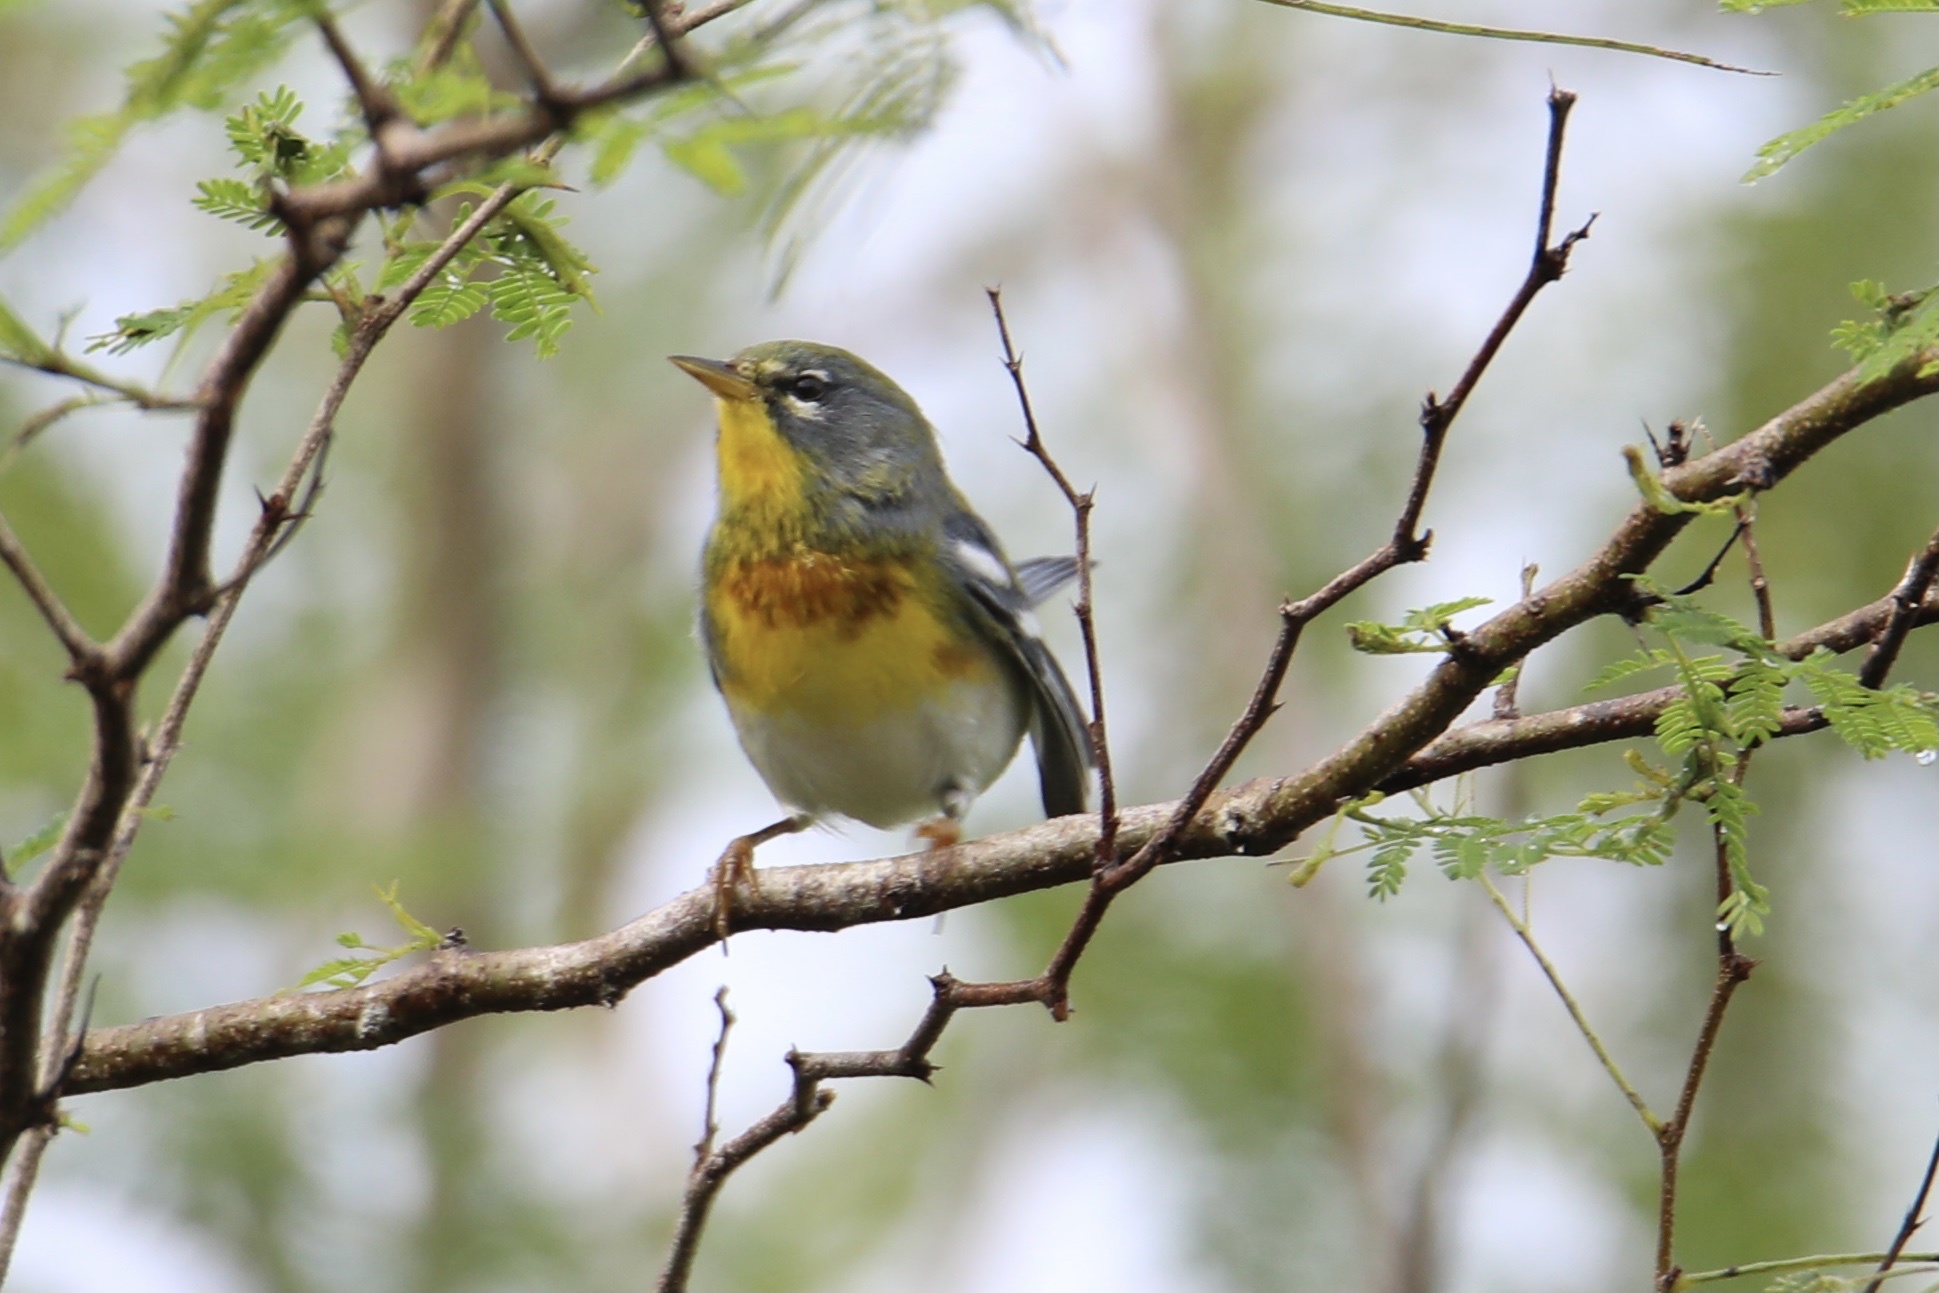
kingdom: Animalia
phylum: Chordata
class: Aves
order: Passeriformes
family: Parulidae
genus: Setophaga
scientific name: Setophaga americana
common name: Northern parula
